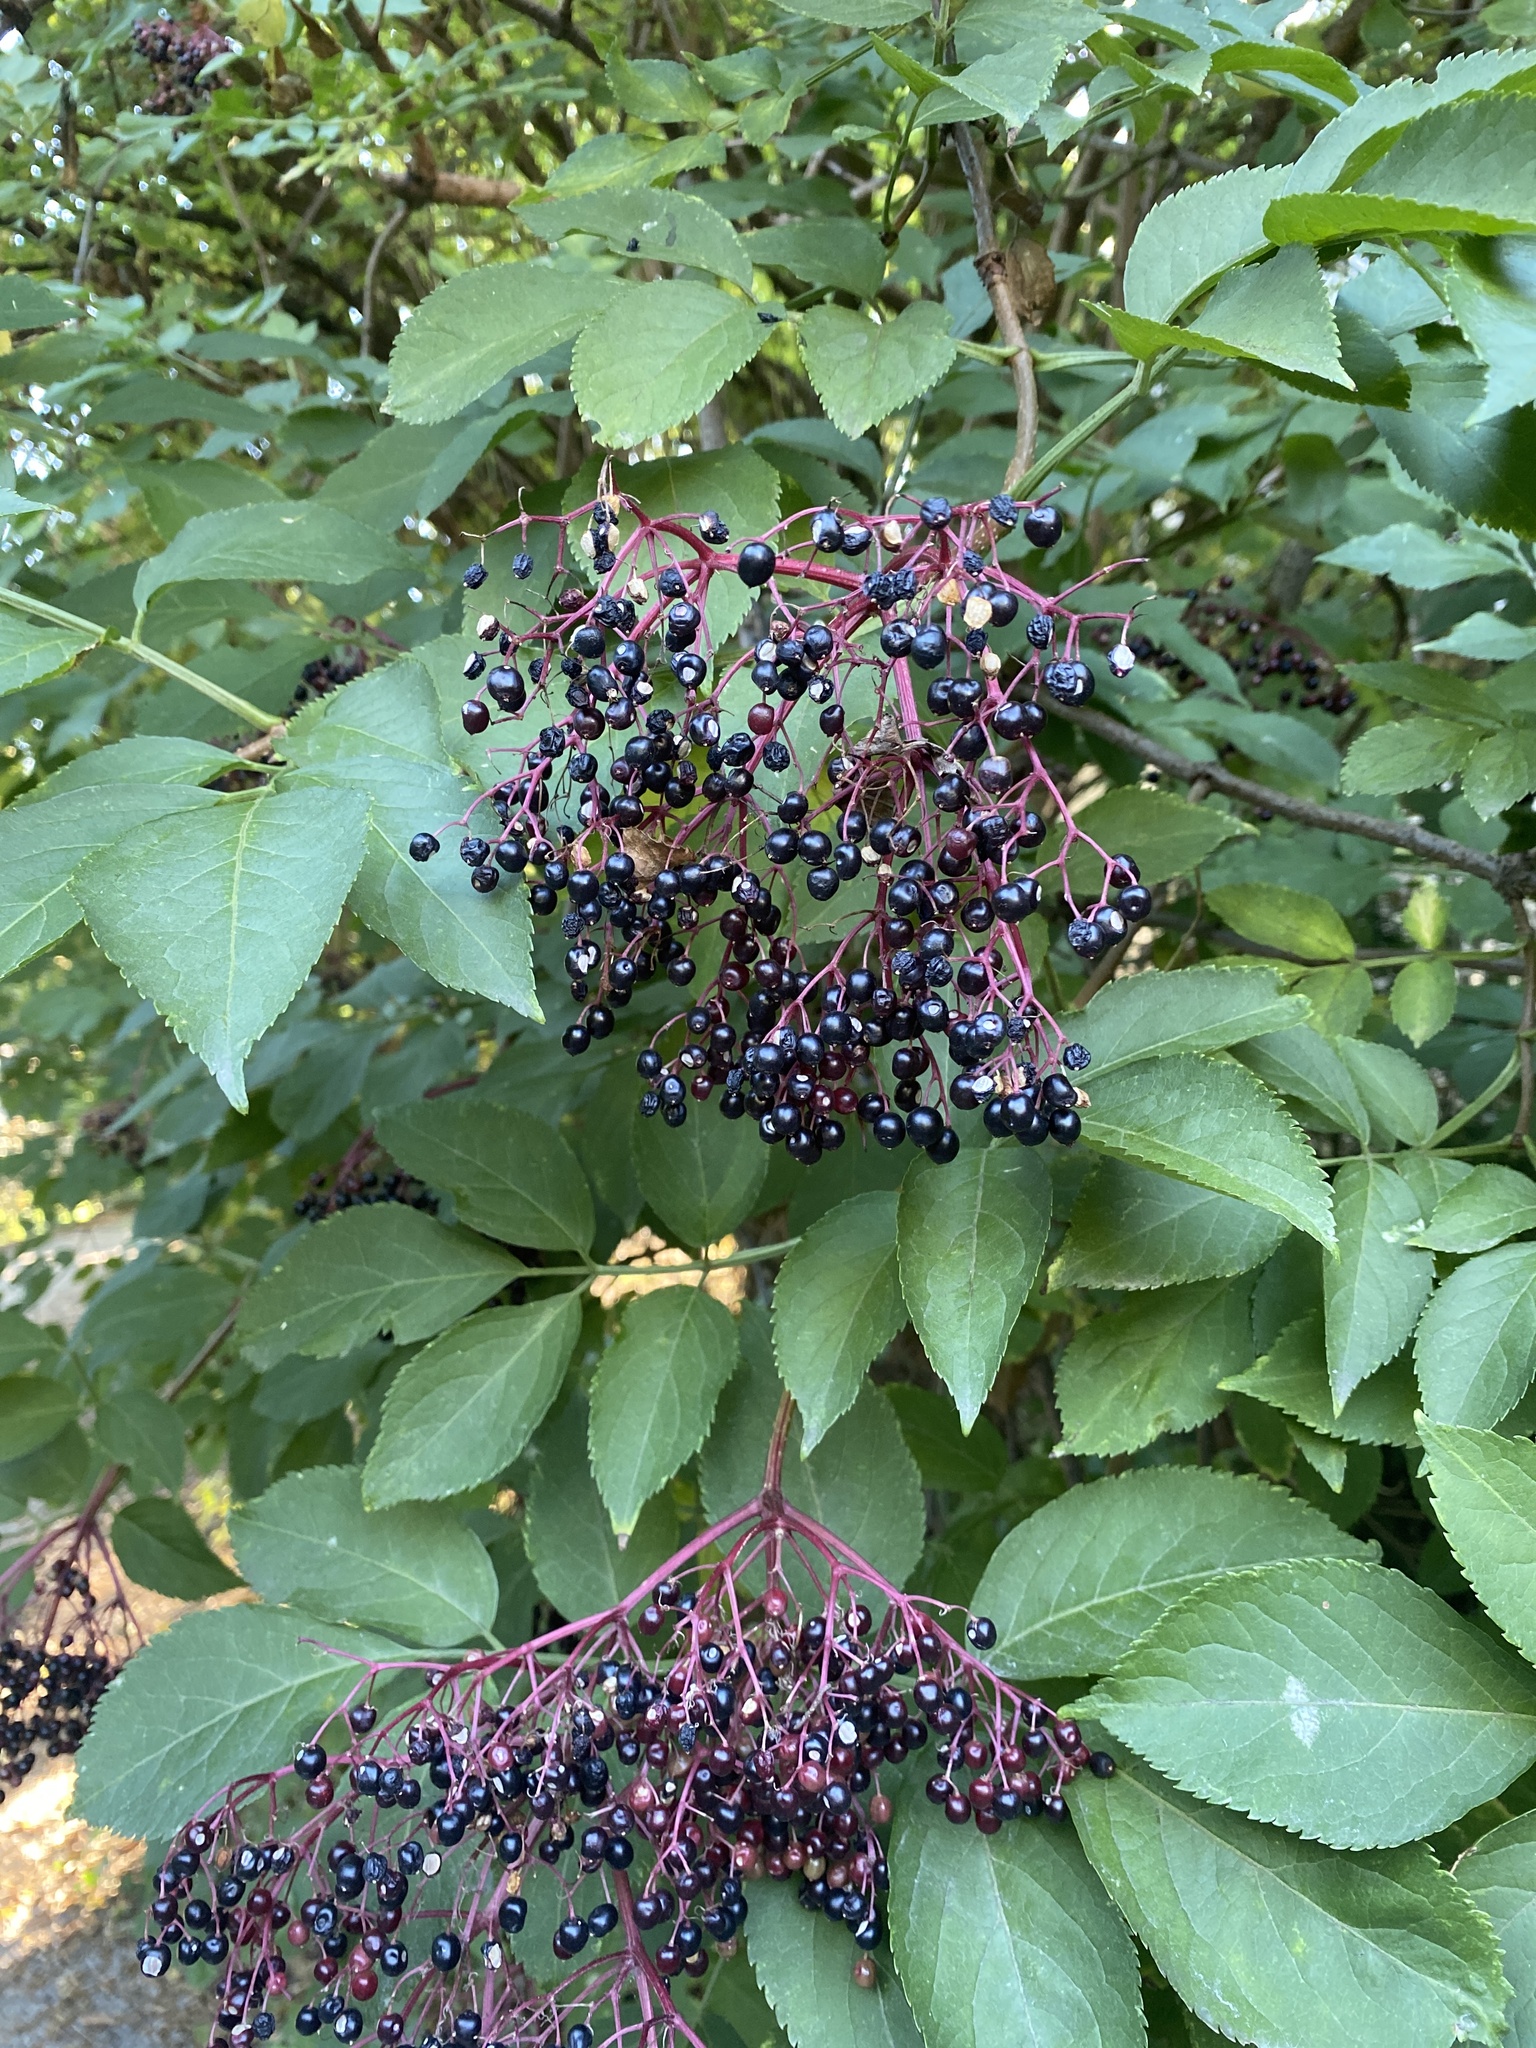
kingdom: Plantae
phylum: Tracheophyta
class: Magnoliopsida
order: Dipsacales
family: Viburnaceae
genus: Sambucus
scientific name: Sambucus nigra
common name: Elder
